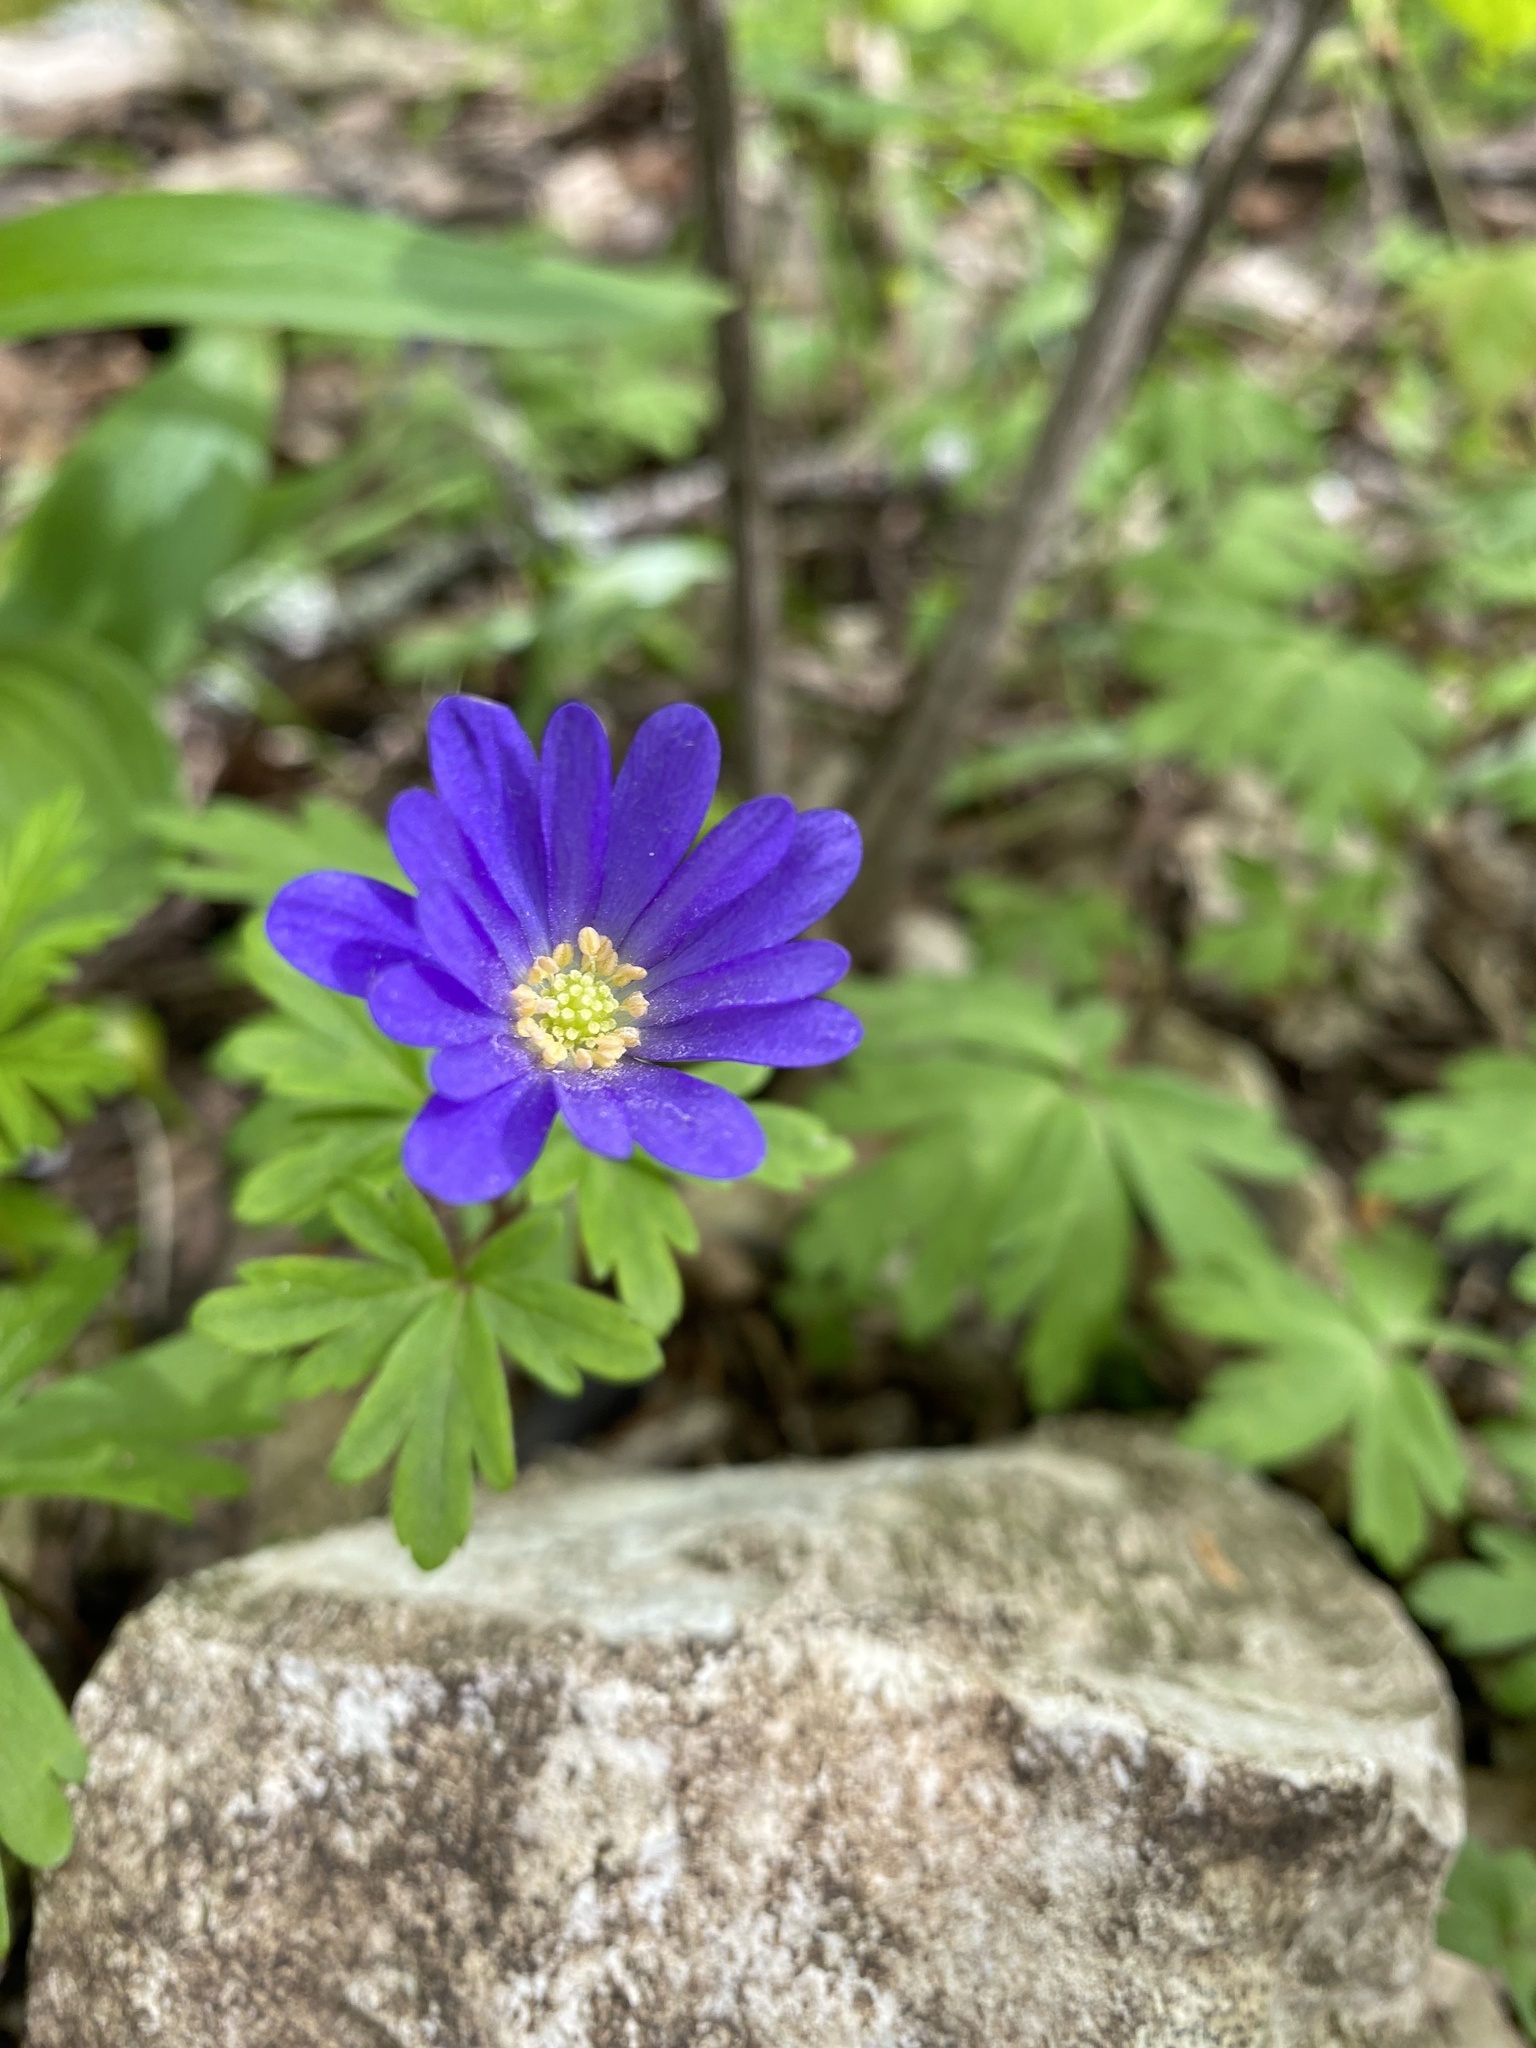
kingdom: Plantae
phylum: Tracheophyta
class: Magnoliopsida
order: Ranunculales
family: Ranunculaceae
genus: Anemone
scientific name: Anemone blanda
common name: Balkan anemone
